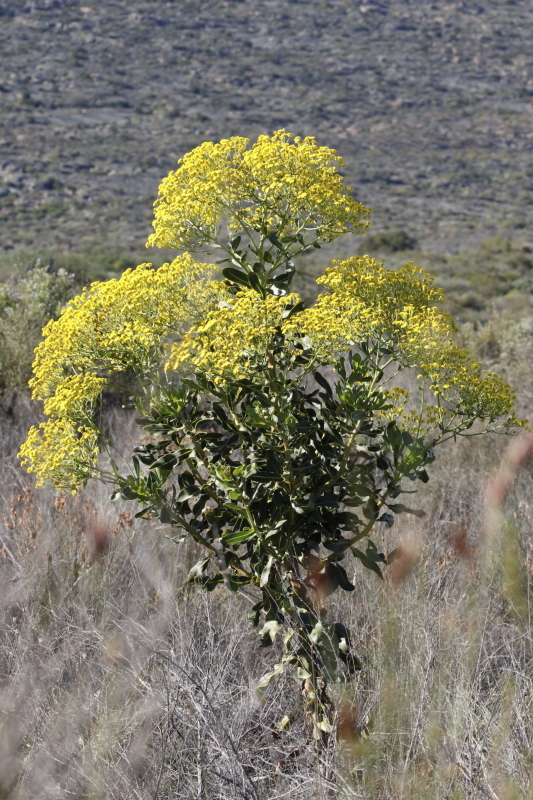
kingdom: Plantae
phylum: Tracheophyta
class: Magnoliopsida
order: Asterales
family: Asteraceae
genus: Othonna
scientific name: Othonna parviflora
